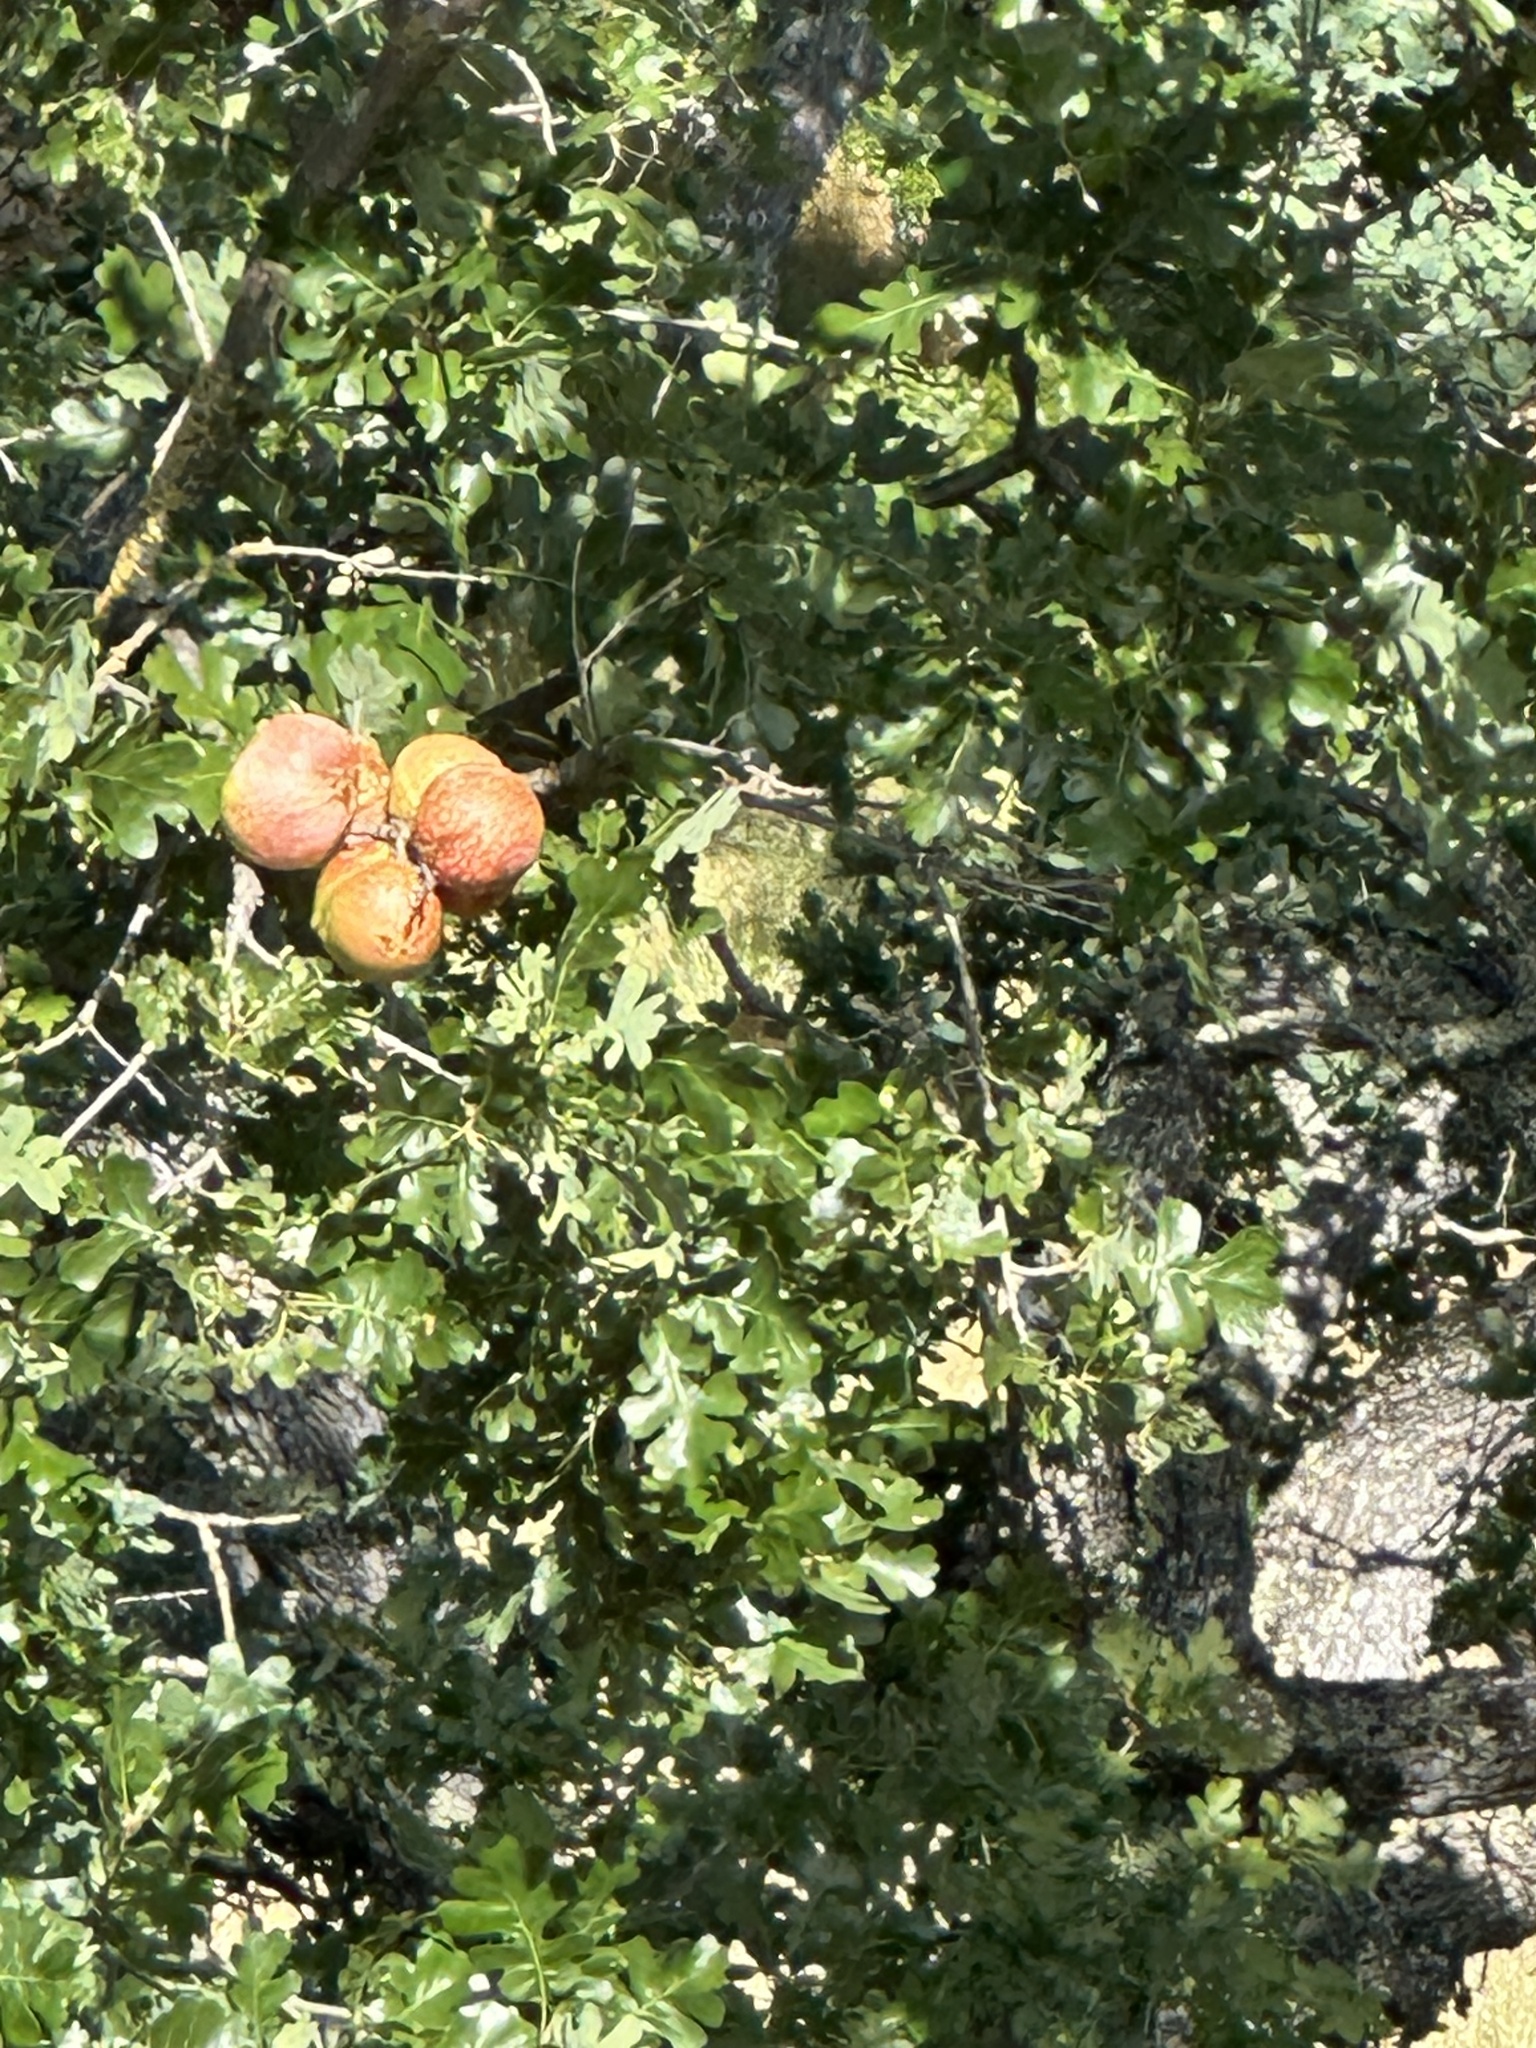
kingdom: Animalia
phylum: Arthropoda
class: Insecta
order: Hymenoptera
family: Cynipidae
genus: Andricus
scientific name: Andricus quercuscalifornicus
